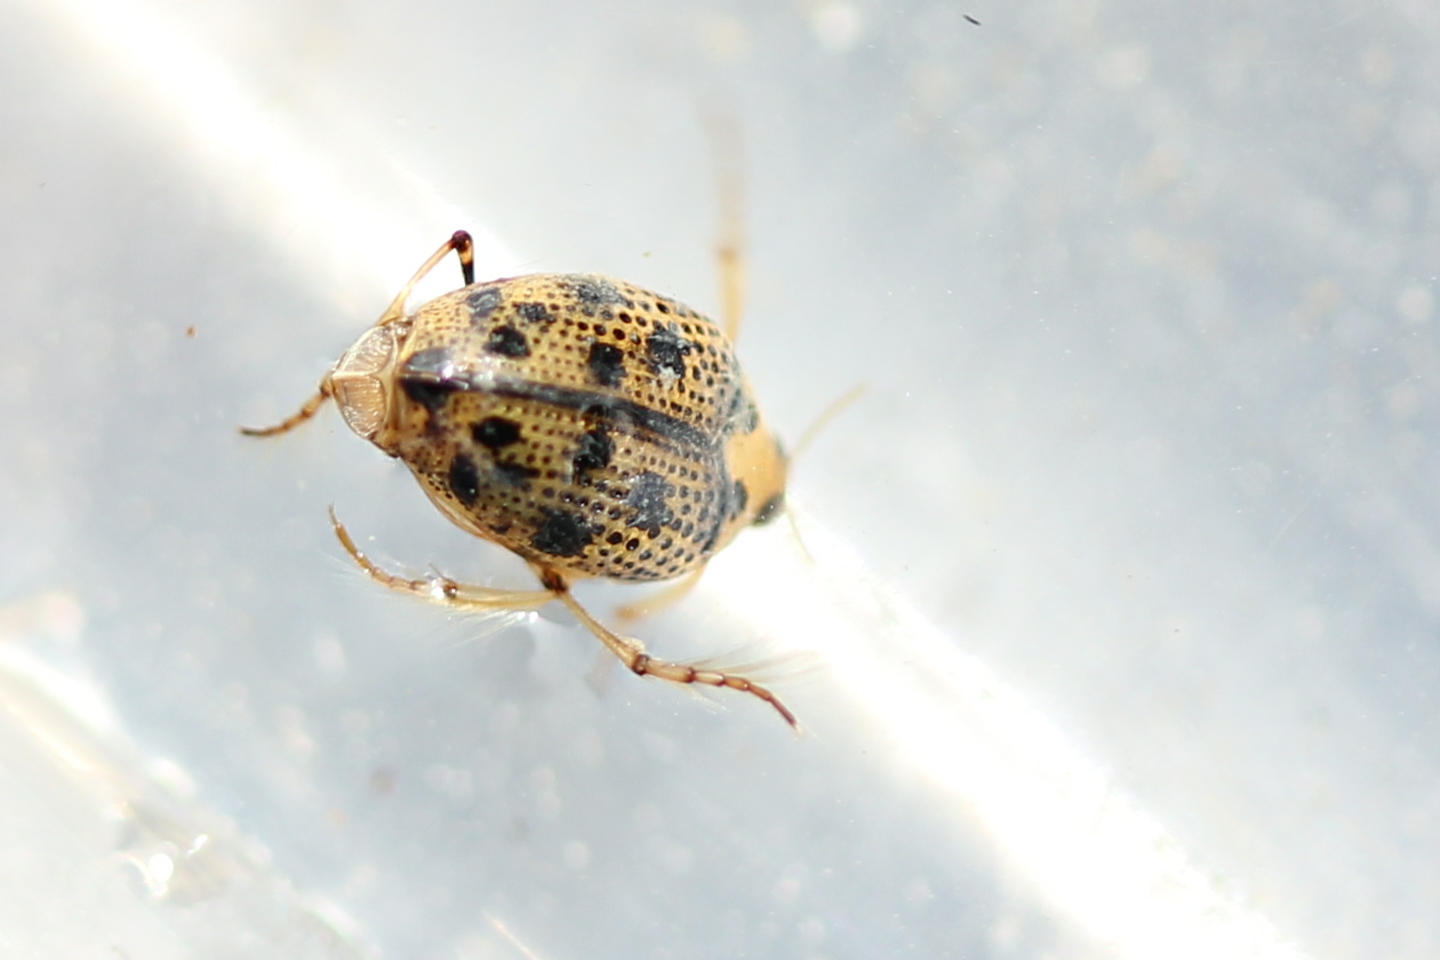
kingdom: Animalia
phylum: Arthropoda
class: Insecta
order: Coleoptera
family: Haliplidae
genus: Peltodytes
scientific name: Peltodytes
